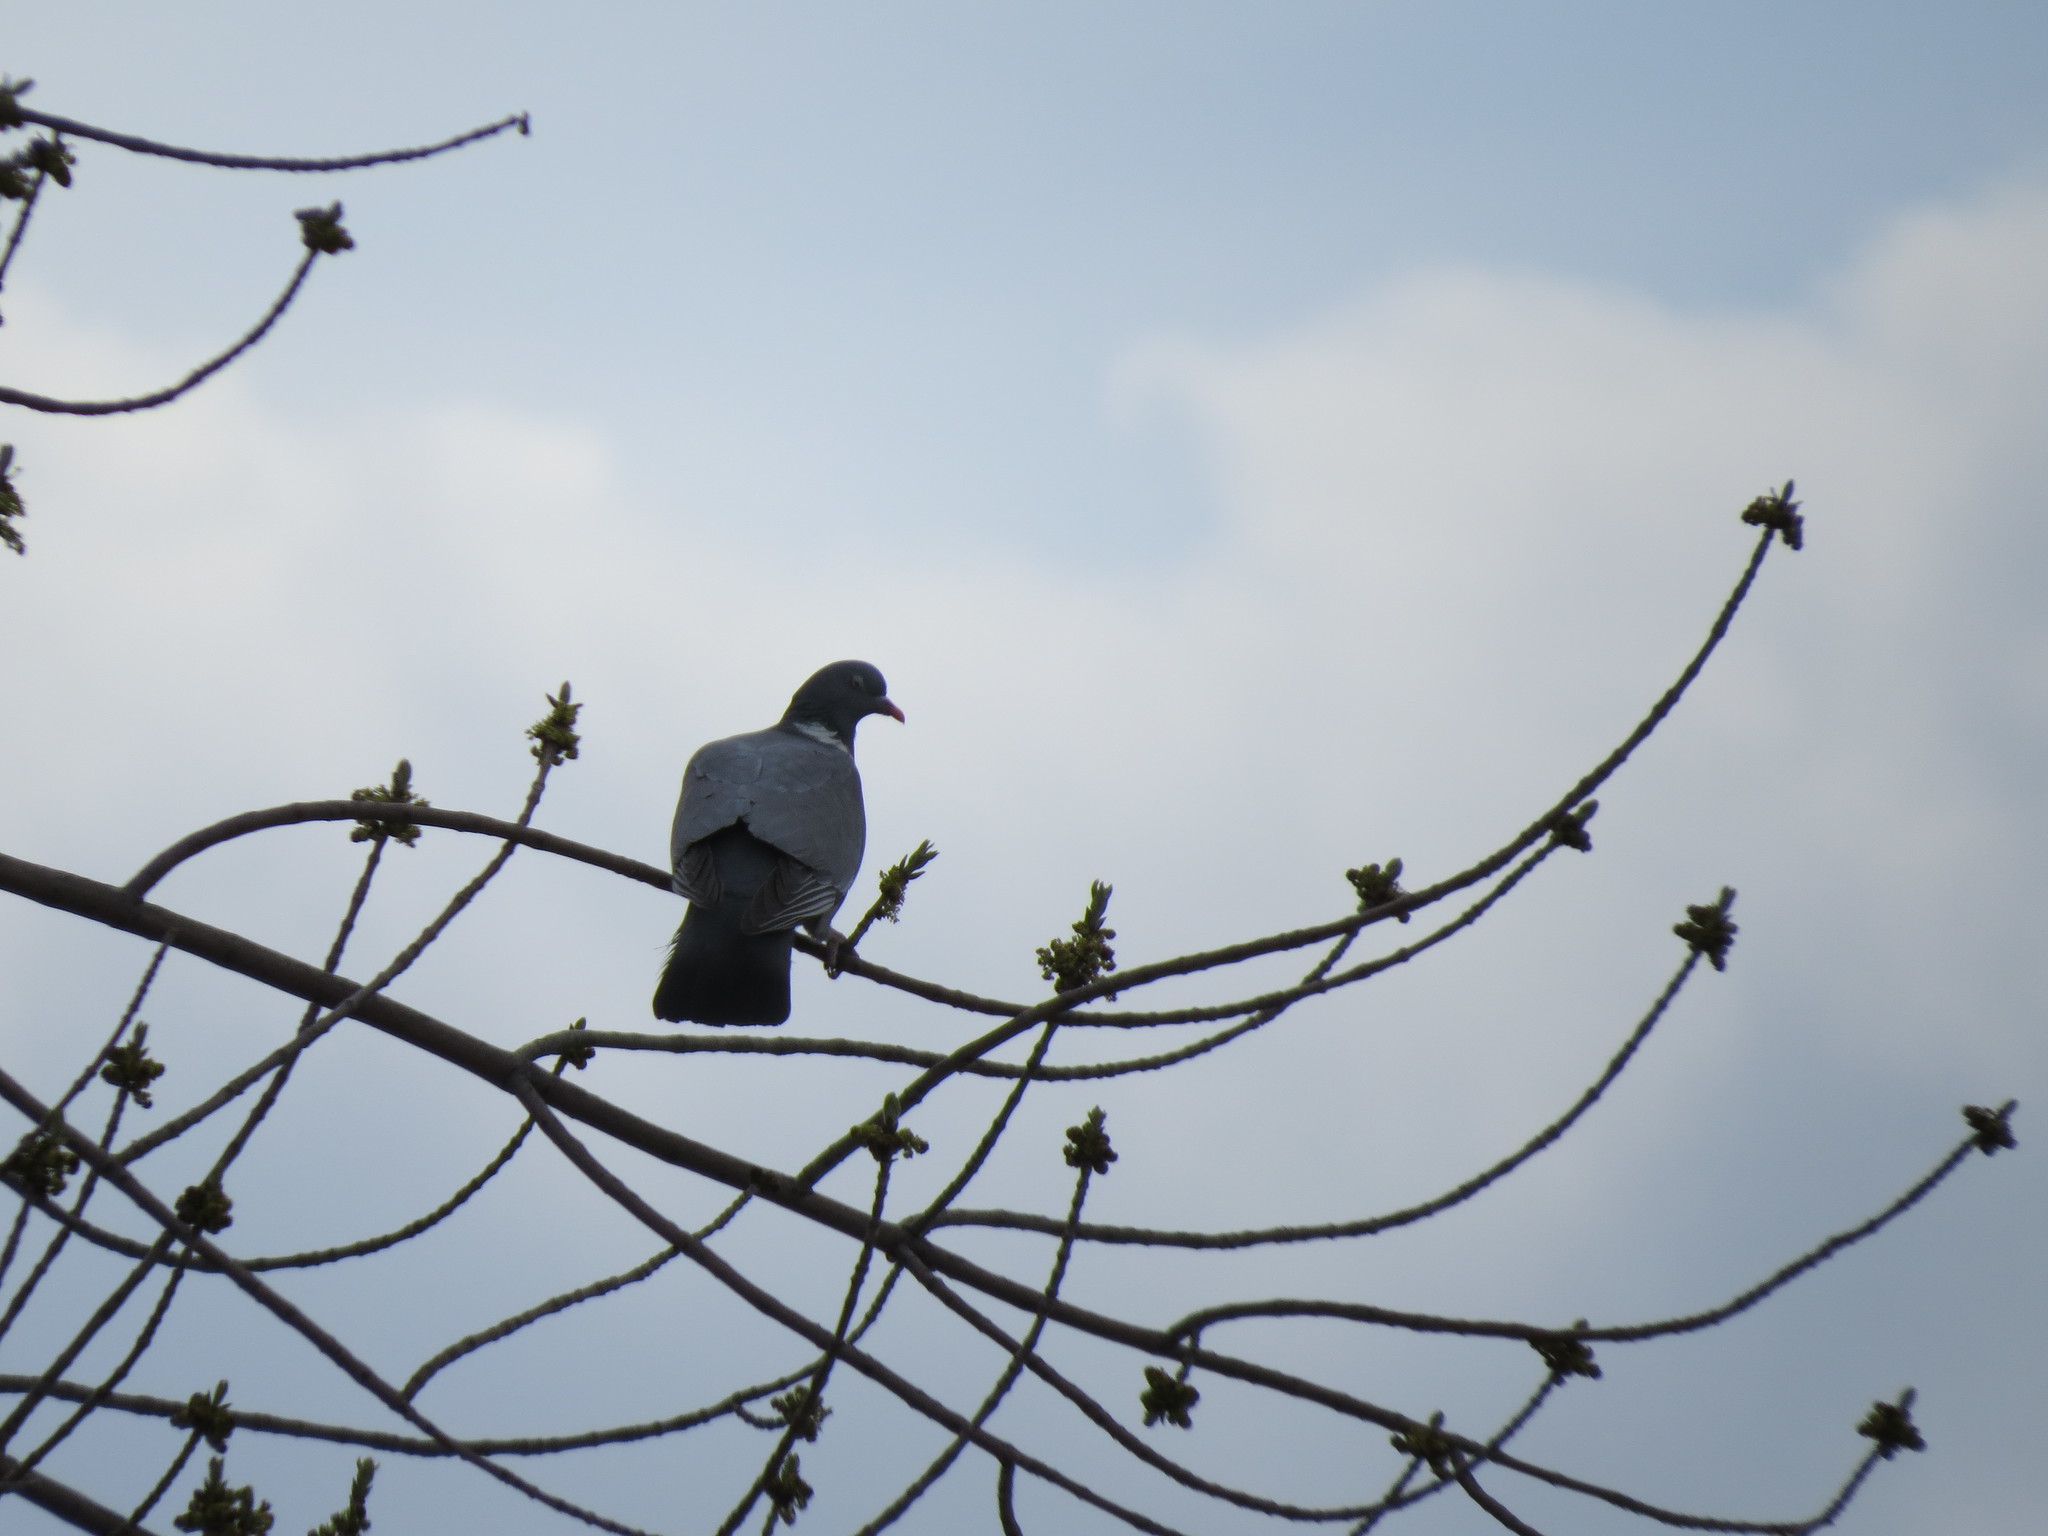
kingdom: Animalia
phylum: Chordata
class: Aves
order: Columbiformes
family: Columbidae
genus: Columba
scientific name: Columba palumbus
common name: Common wood pigeon
